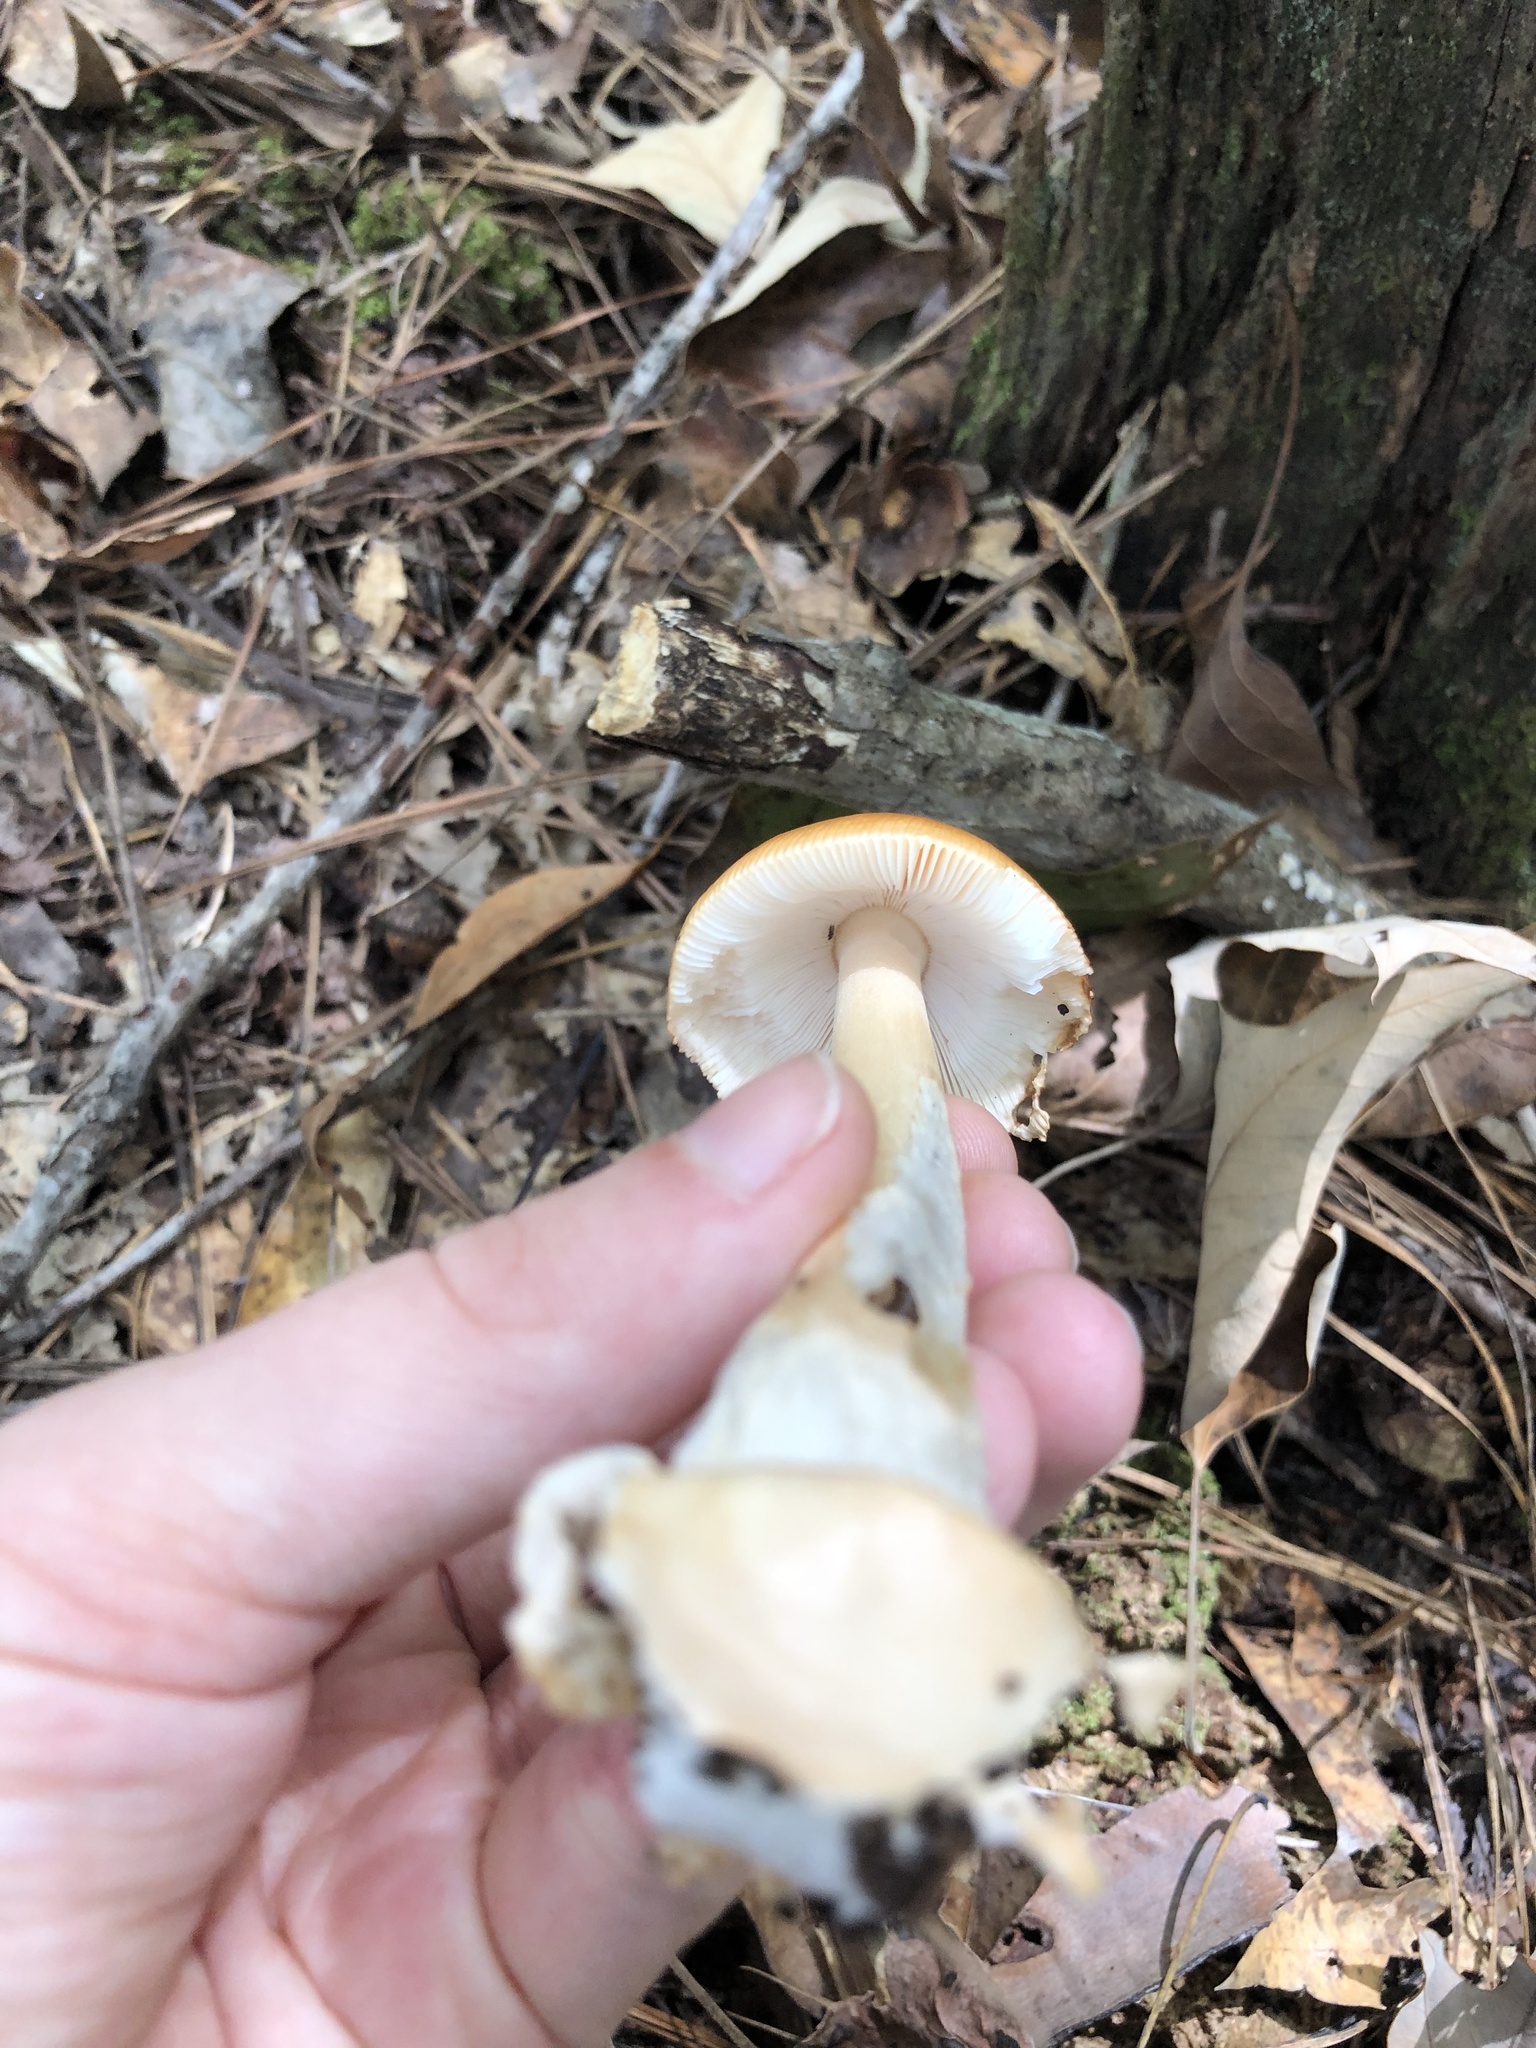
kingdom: Fungi
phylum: Basidiomycota
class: Agaricomycetes
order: Agaricales
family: Amanitaceae
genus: Amanita
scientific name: Amanita fulva
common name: Tawny grisette
